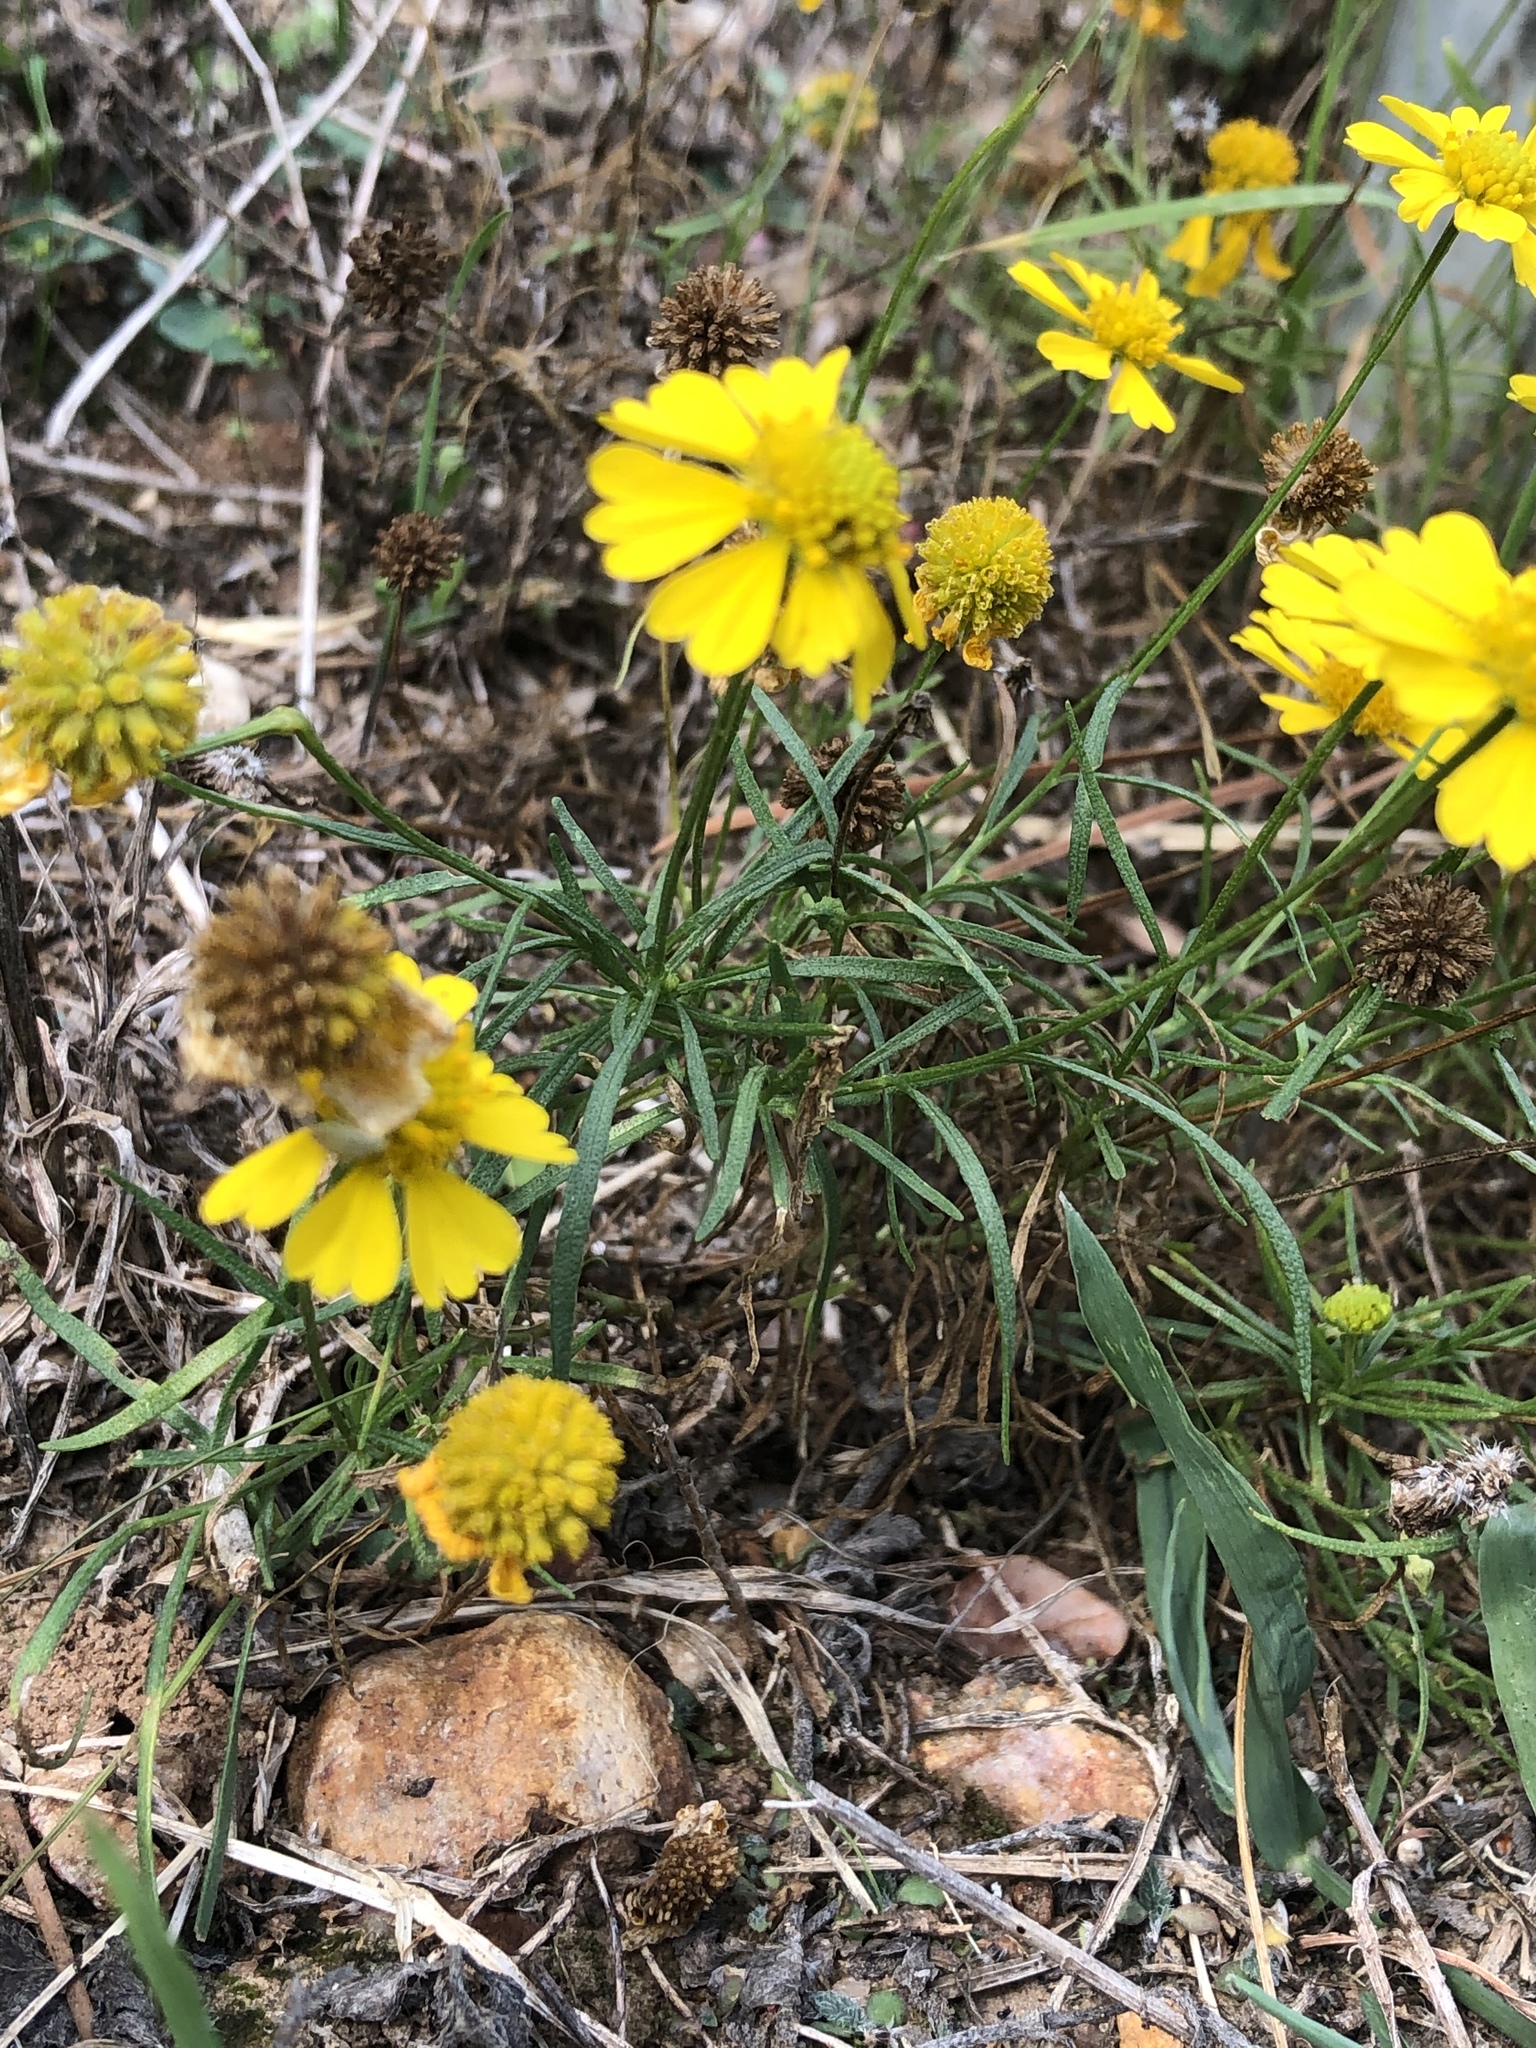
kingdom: Plantae
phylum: Tracheophyta
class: Magnoliopsida
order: Asterales
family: Asteraceae
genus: Helenium
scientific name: Helenium amarum
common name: Bitter sneezeweed
